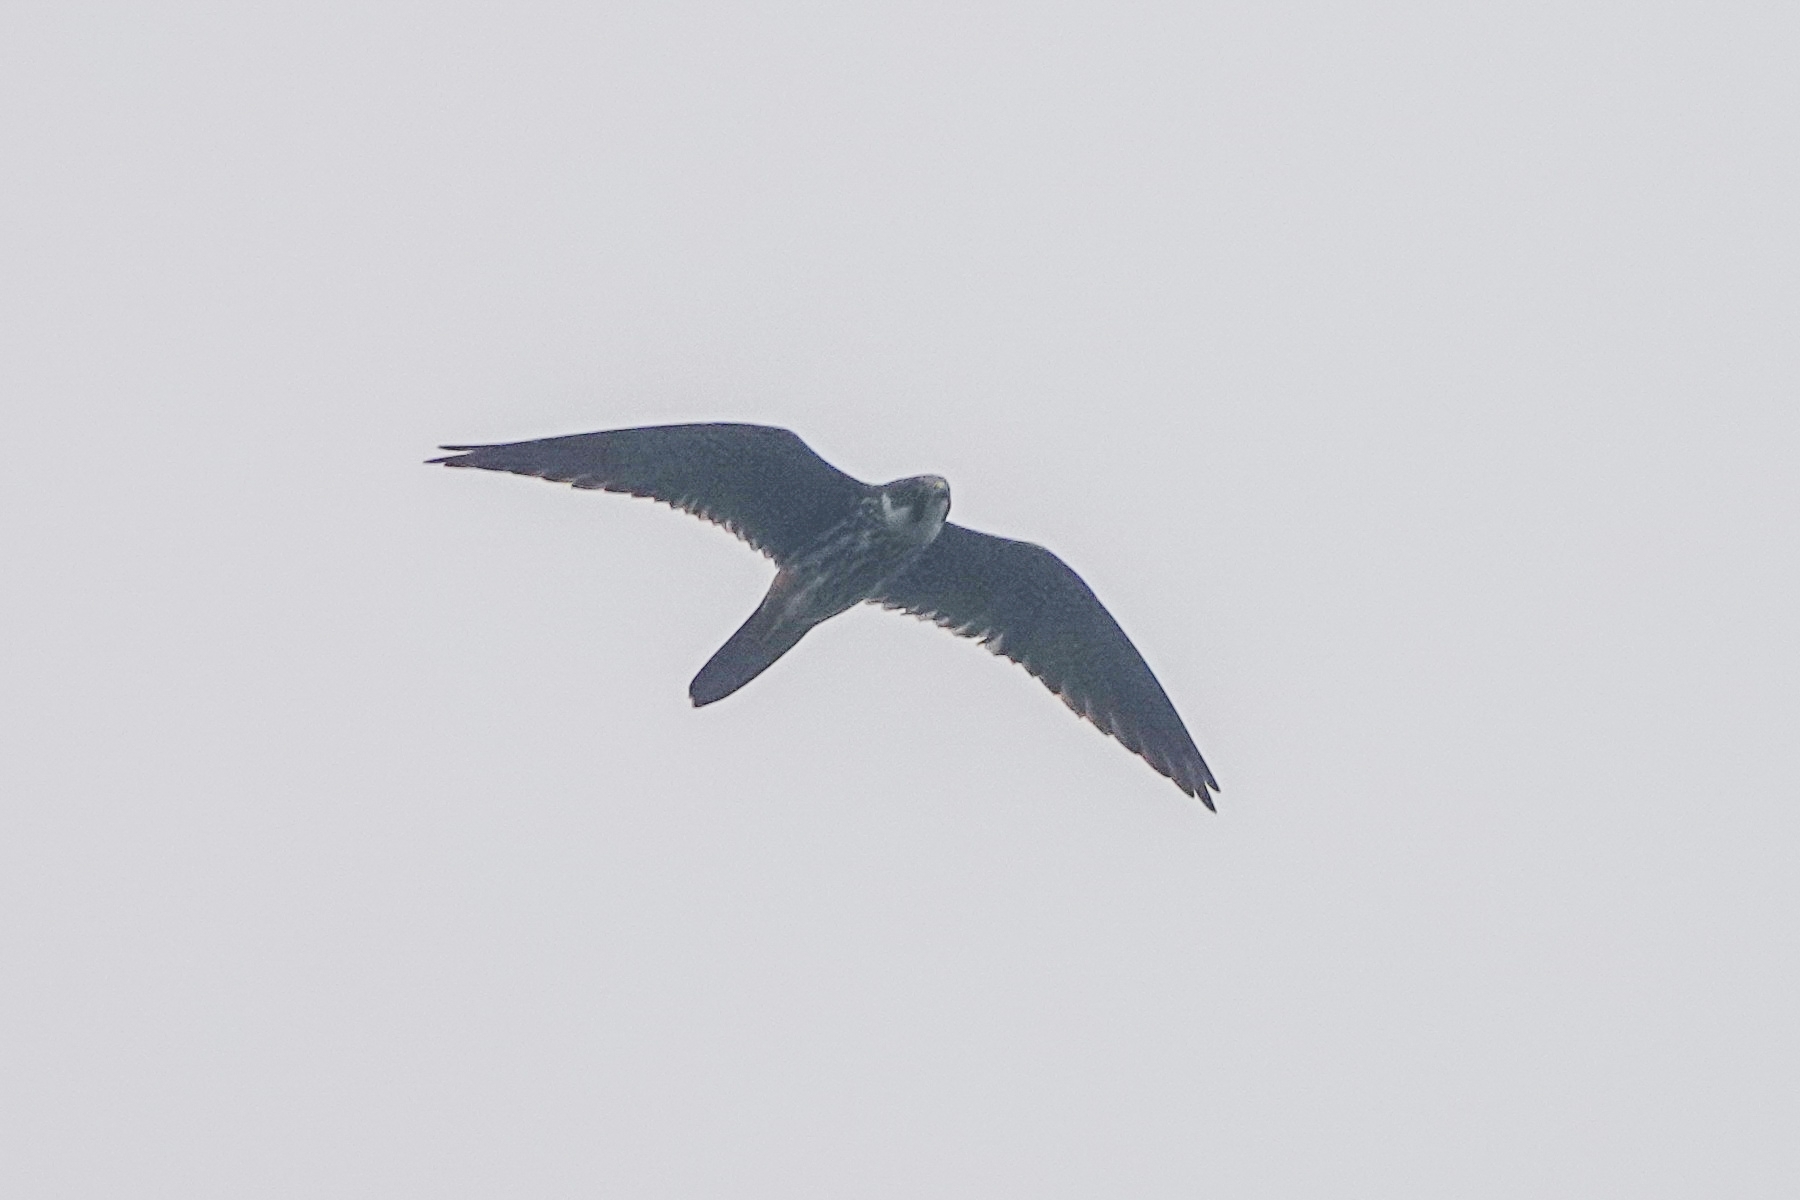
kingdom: Animalia
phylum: Chordata
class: Aves
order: Falconiformes
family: Falconidae
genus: Falco
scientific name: Falco subbuteo
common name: Eurasian hobby
